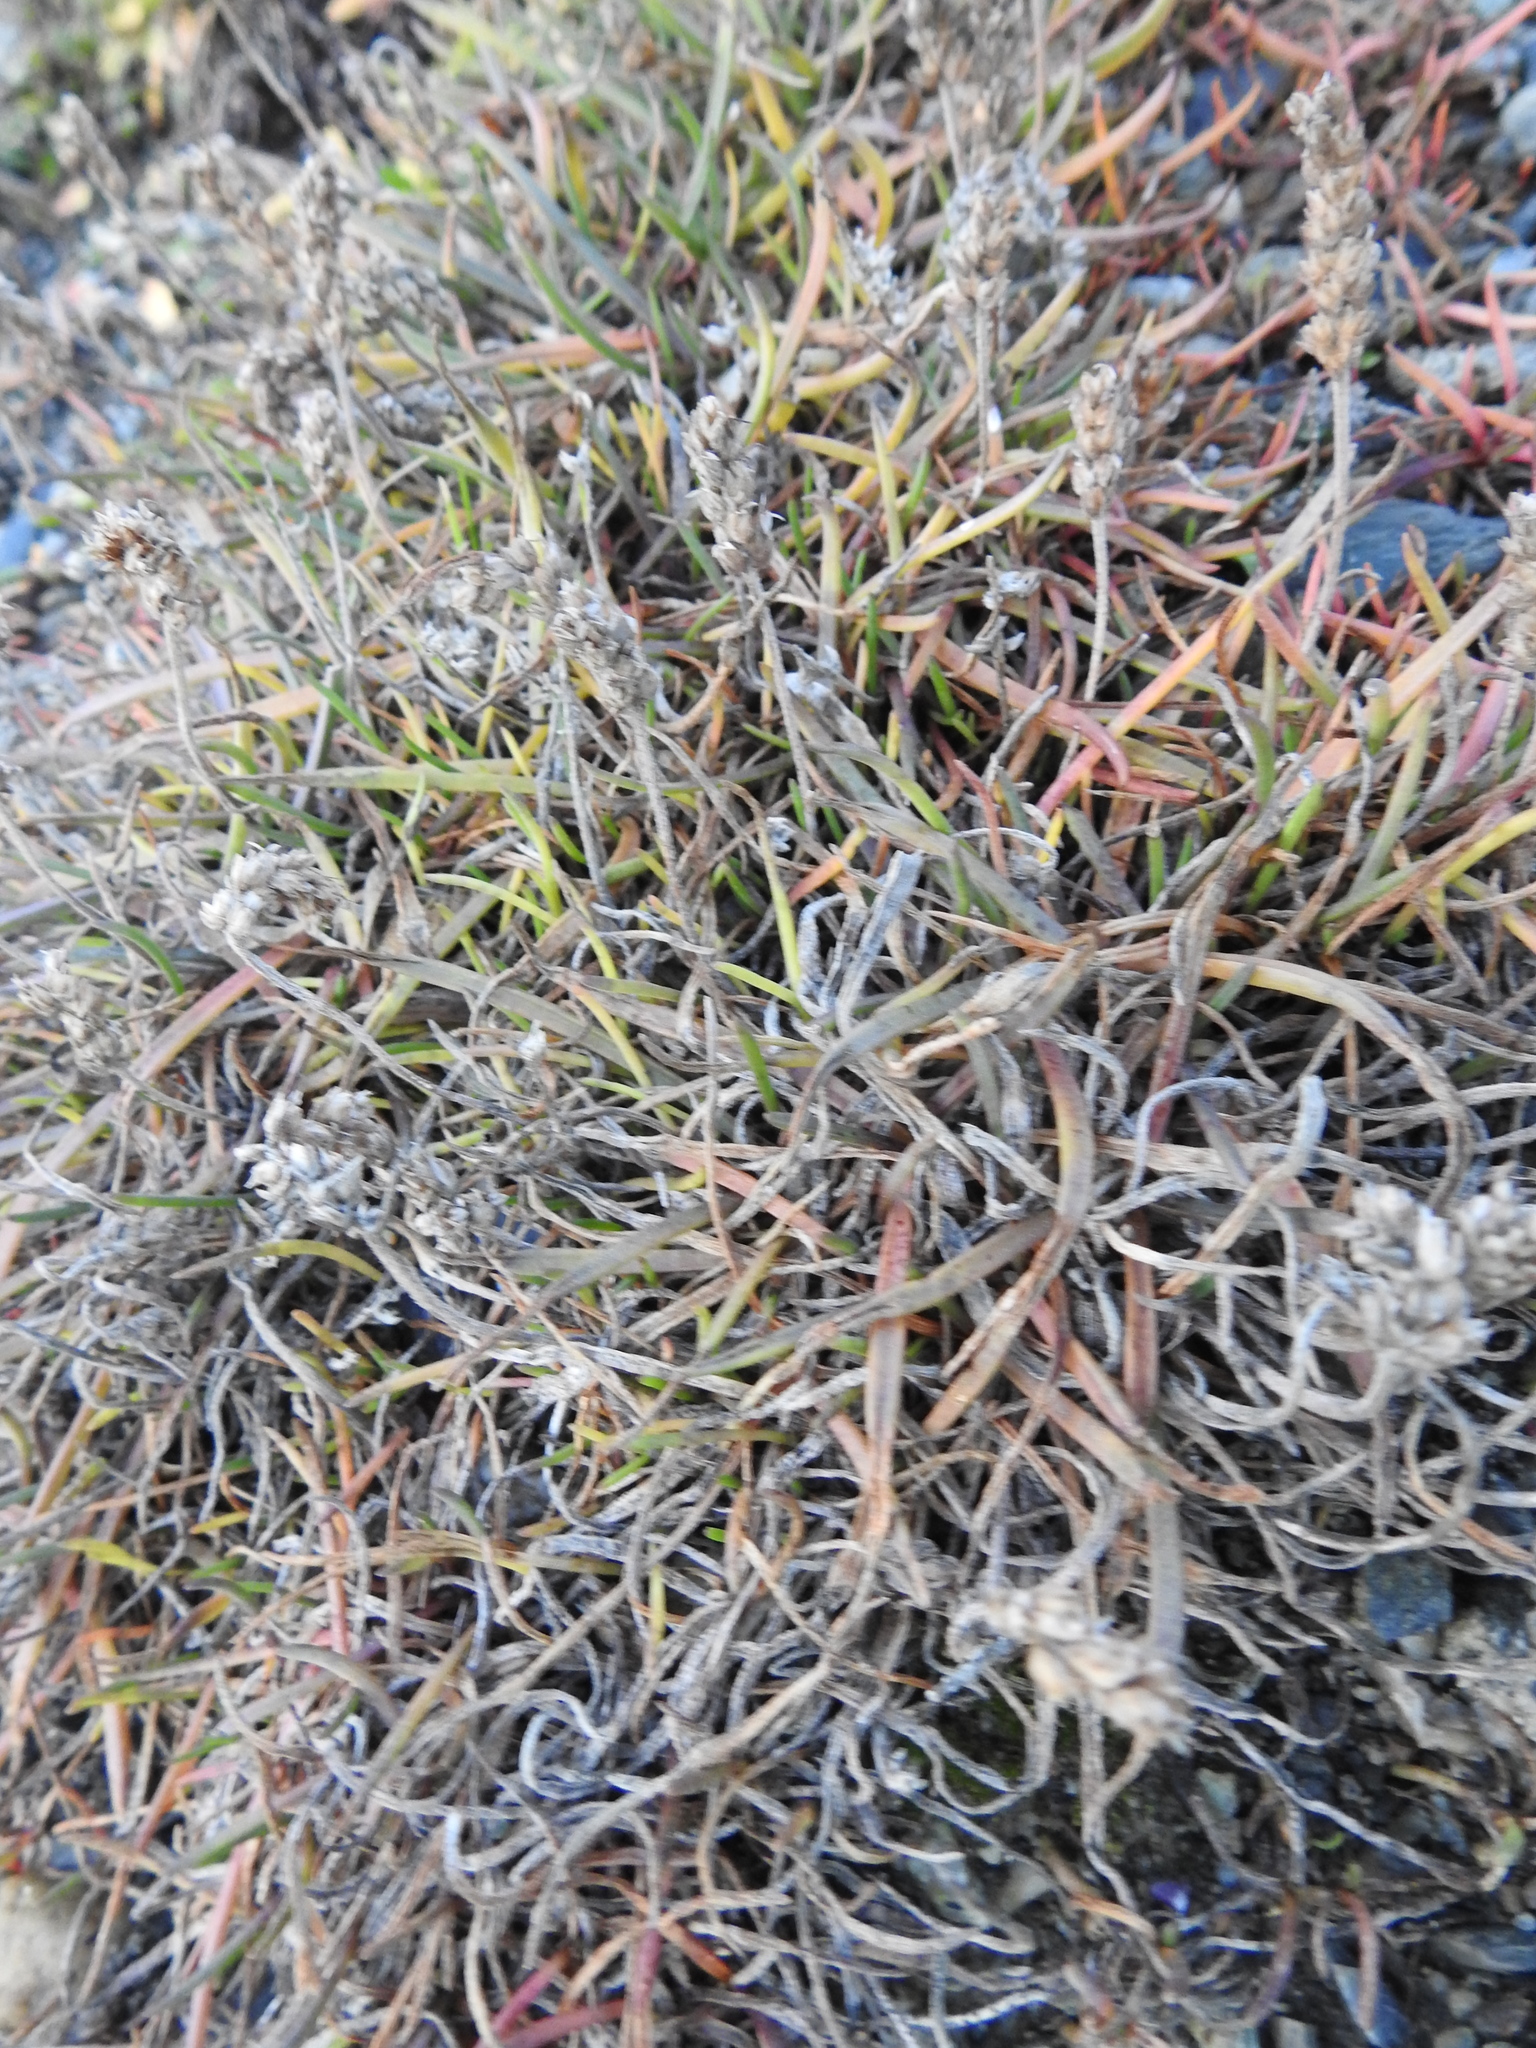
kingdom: Plantae
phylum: Tracheophyta
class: Magnoliopsida
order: Lamiales
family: Plantaginaceae
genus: Plantago
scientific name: Plantago maritima
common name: Sea plantain
